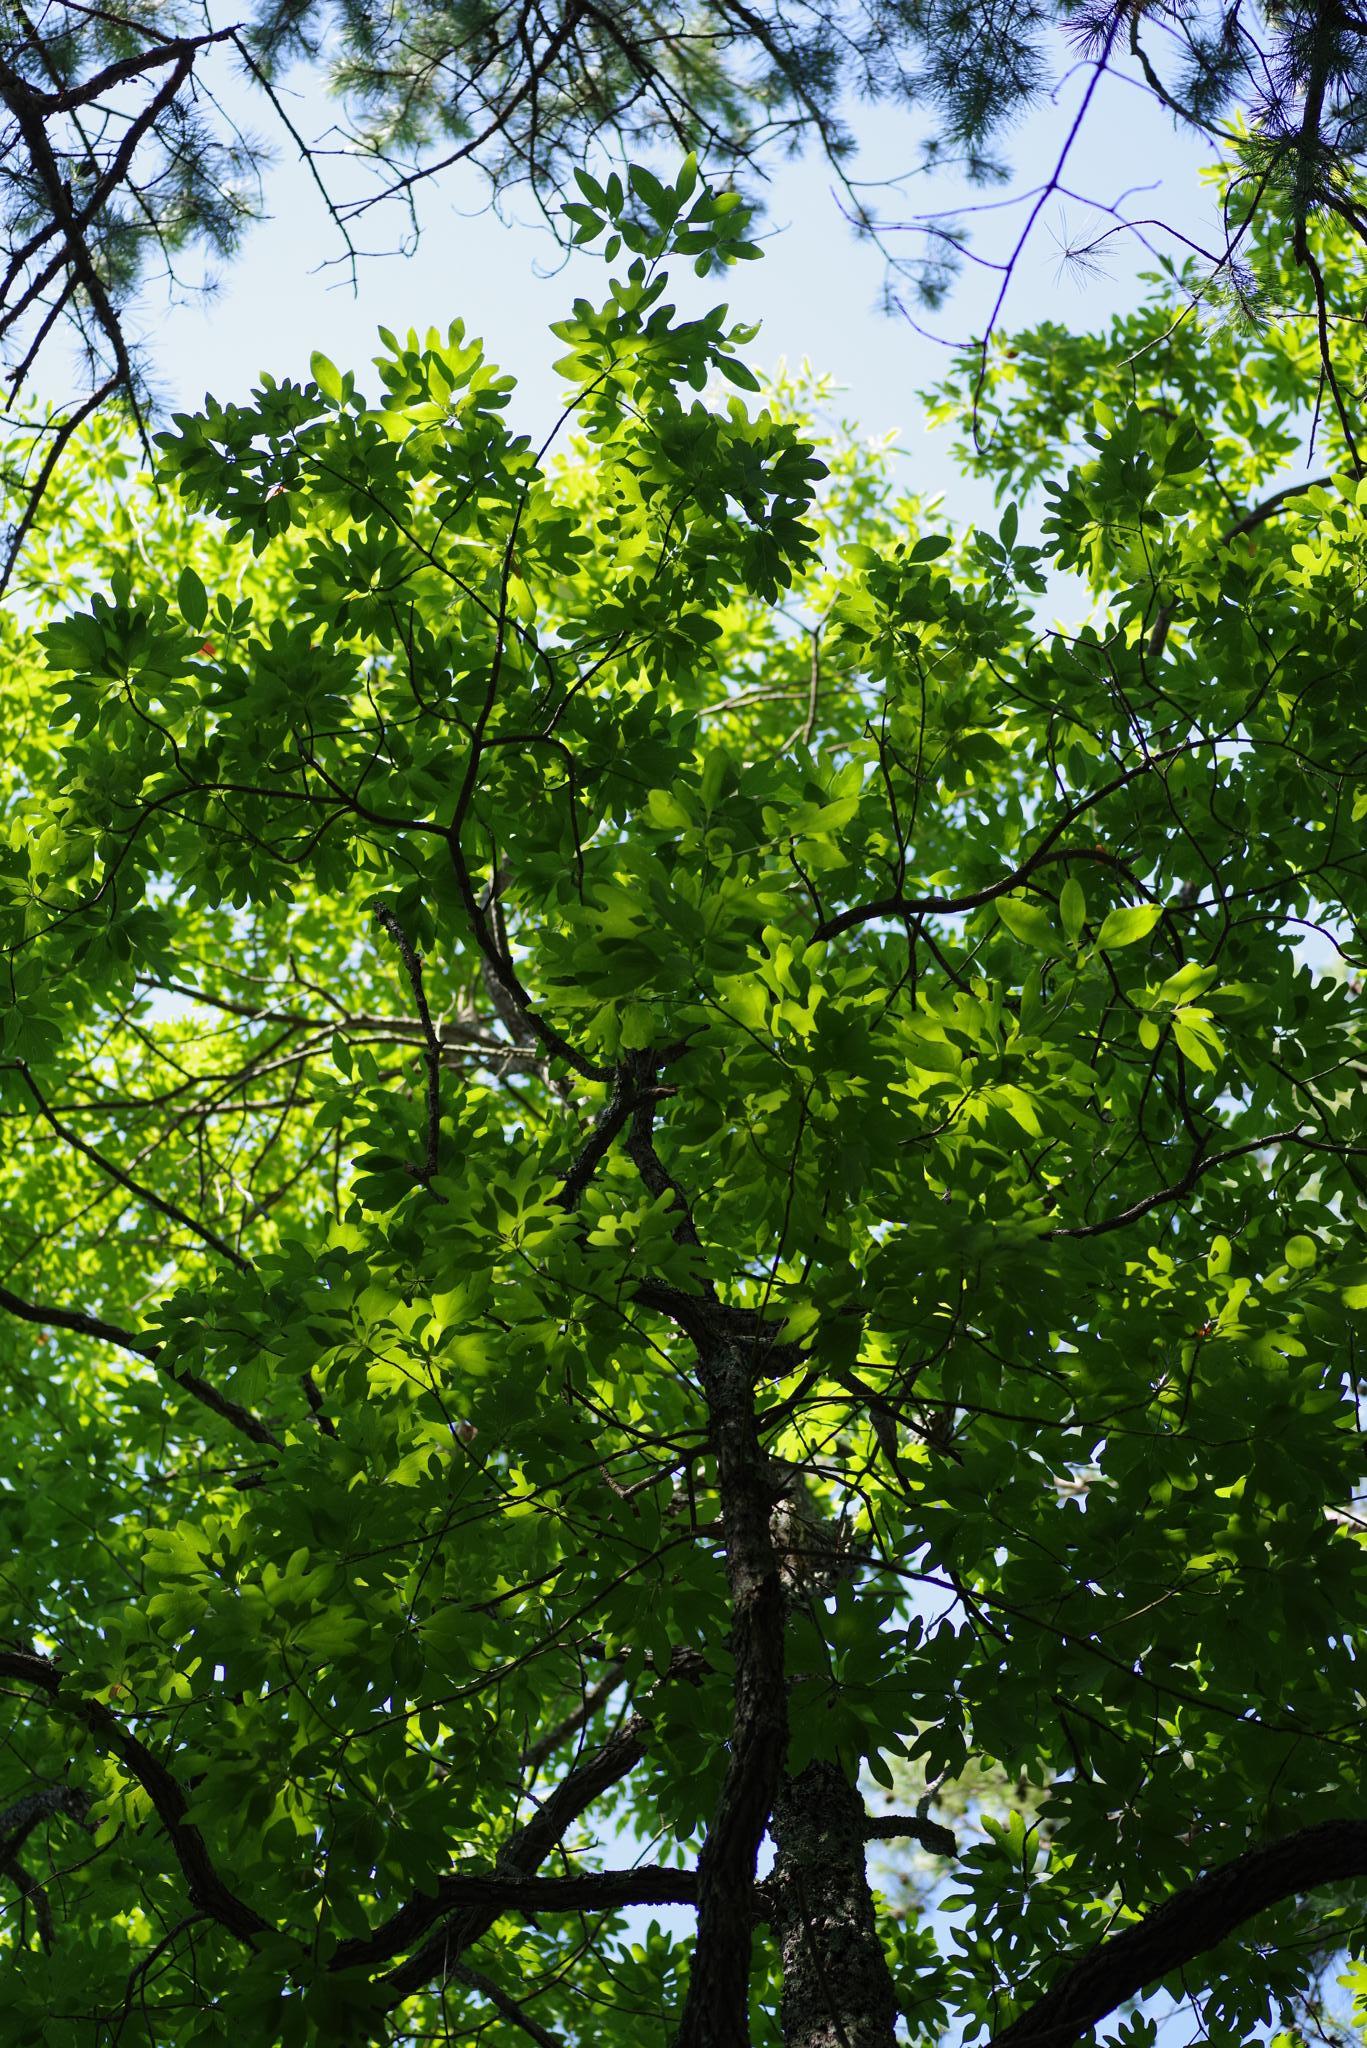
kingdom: Plantae
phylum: Tracheophyta
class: Magnoliopsida
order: Laurales
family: Lauraceae
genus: Sassafras
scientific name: Sassafras albidum
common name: Sassafras
